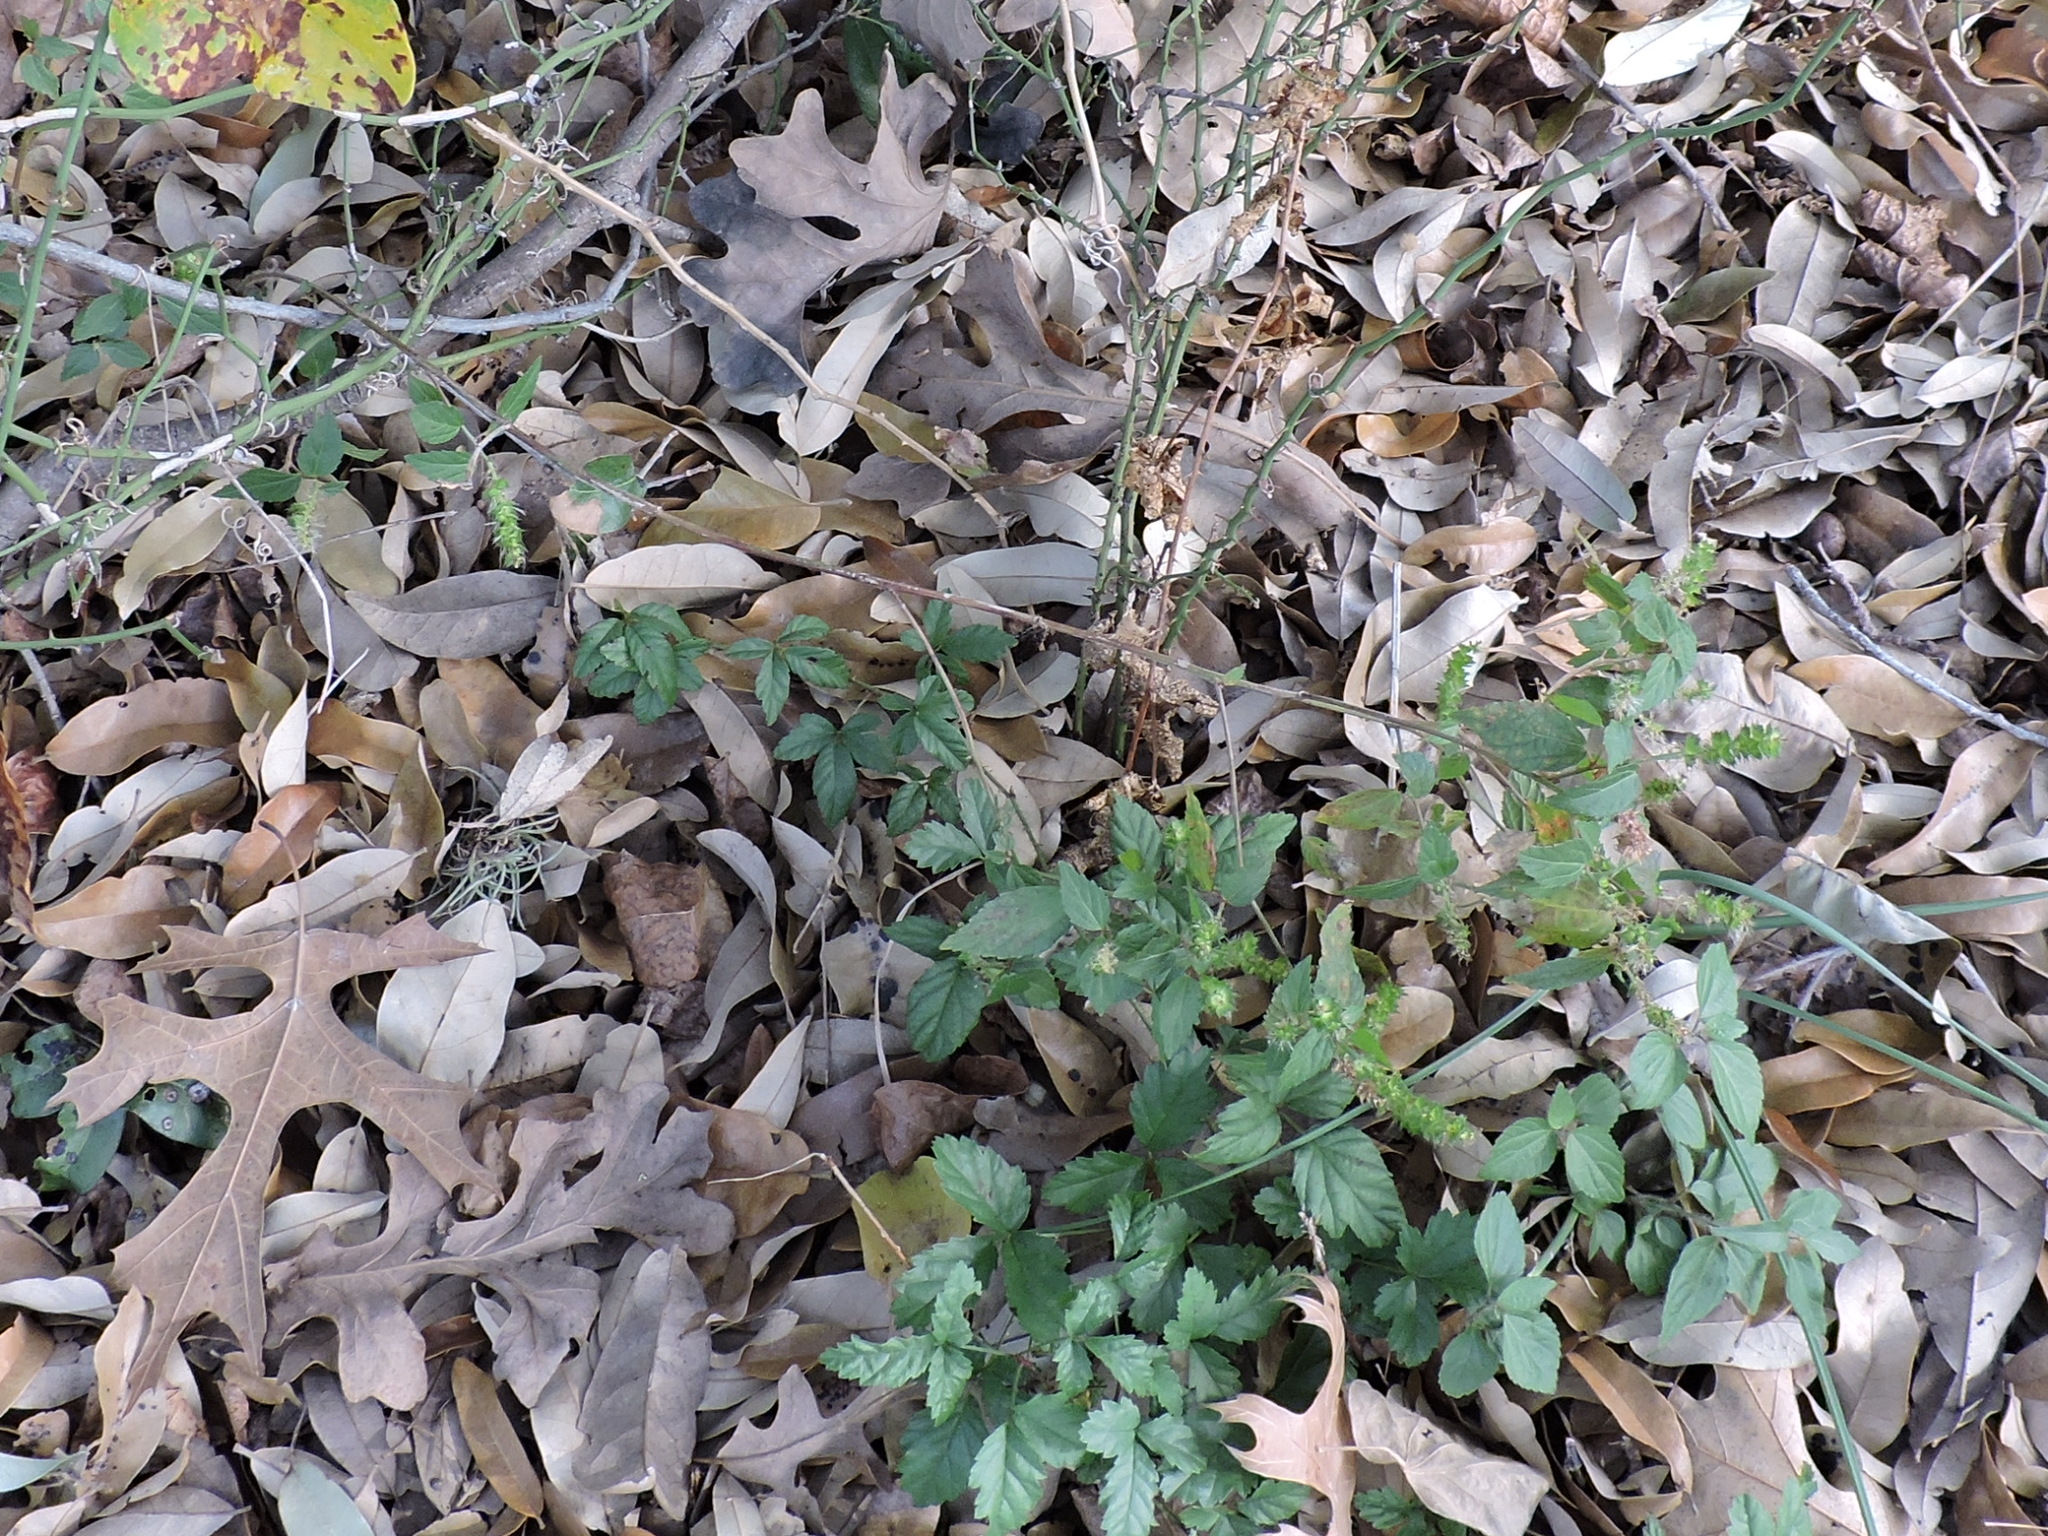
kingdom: Plantae
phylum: Tracheophyta
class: Magnoliopsida
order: Malpighiales
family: Euphorbiaceae
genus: Acalypha
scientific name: Acalypha phleoides
